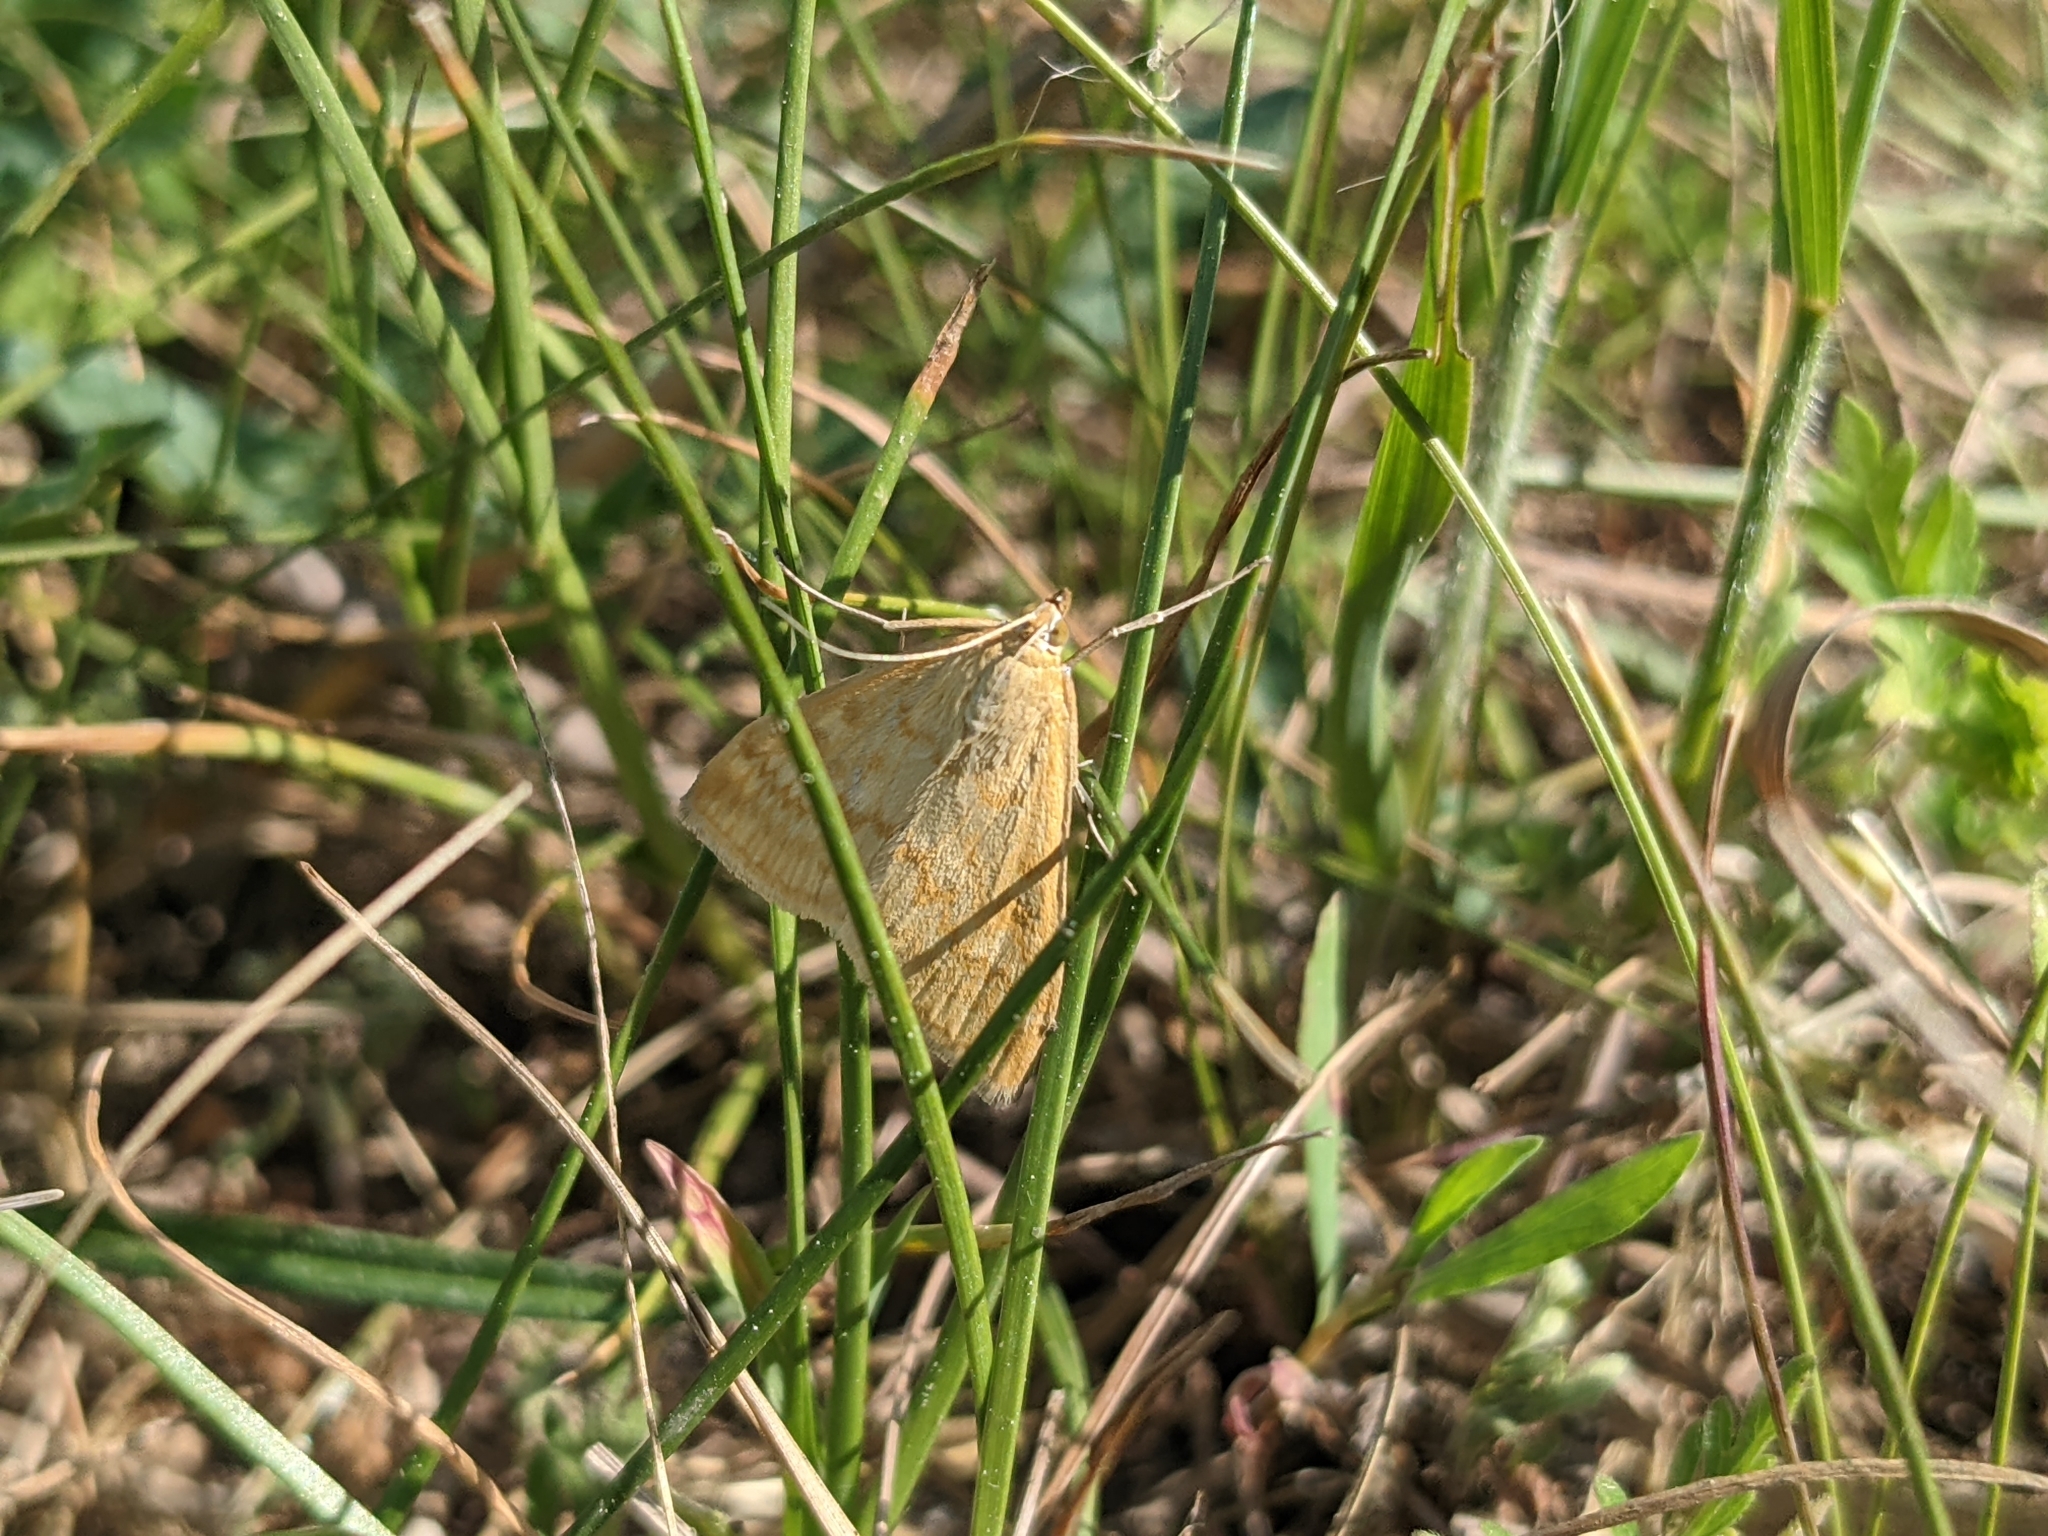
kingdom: Animalia
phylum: Arthropoda
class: Insecta
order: Lepidoptera
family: Crambidae
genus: Sitochroa
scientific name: Sitochroa verticalis
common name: Lesser pearl
